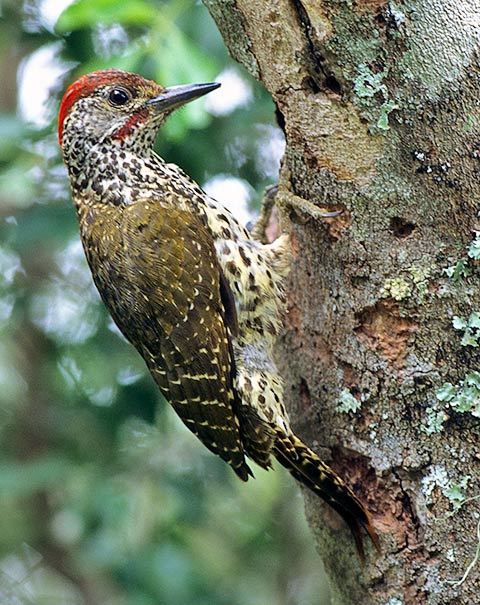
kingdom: Animalia
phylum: Chordata
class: Aves
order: Piciformes
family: Picidae
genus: Campethera
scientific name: Campethera notata
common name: Knysna woodpecker
